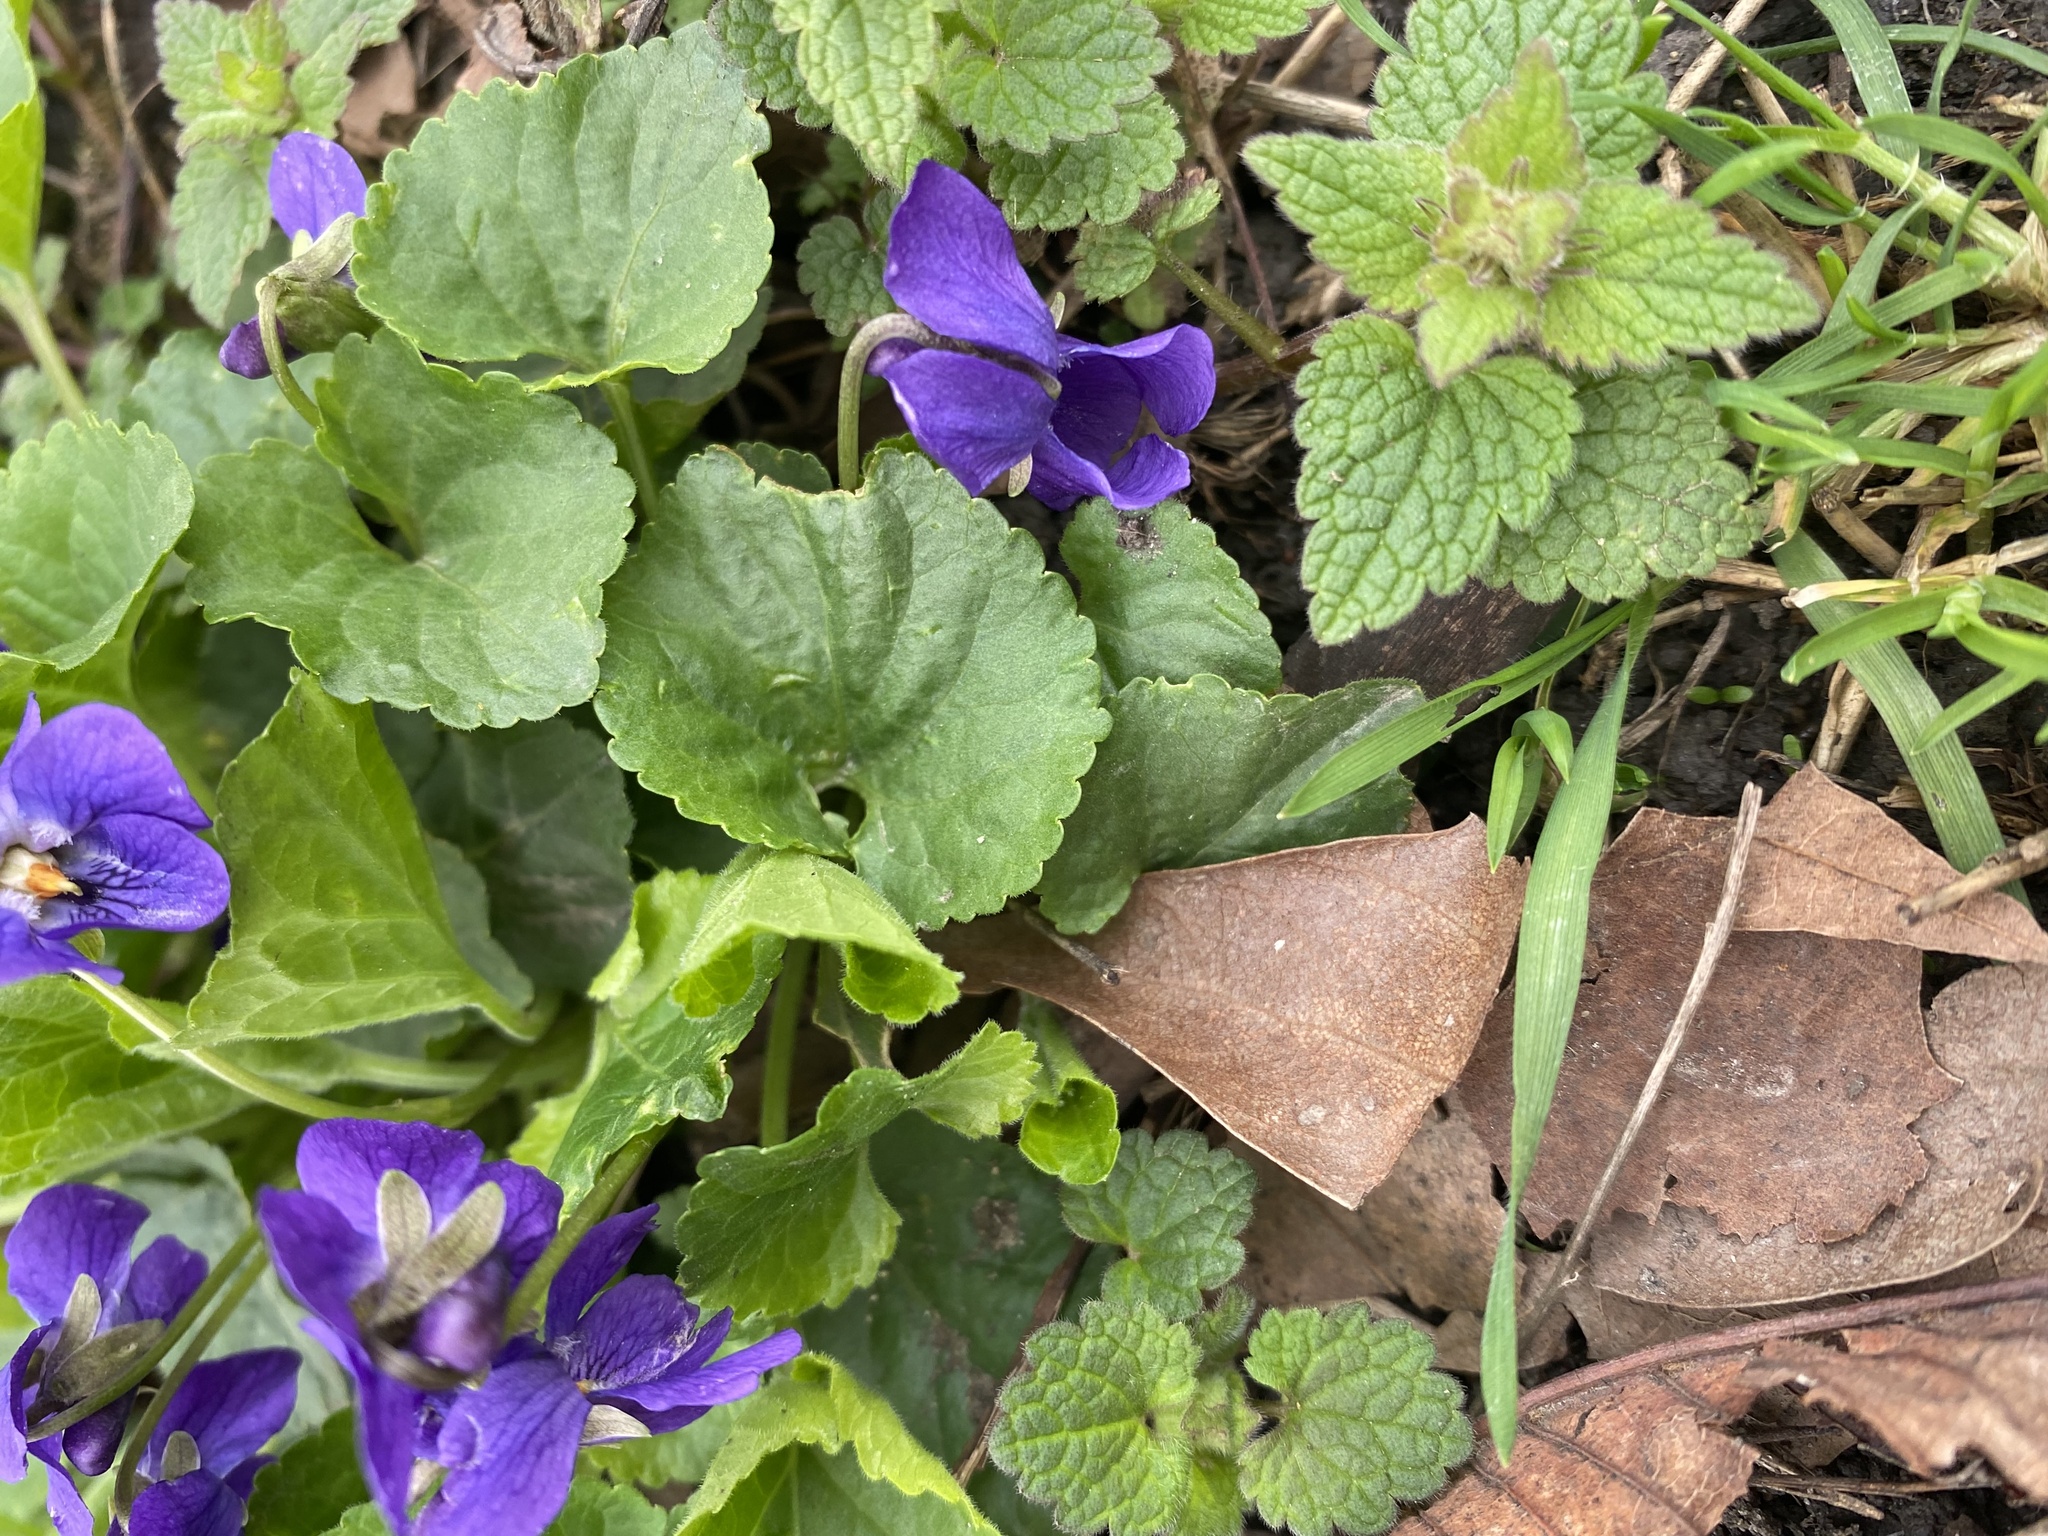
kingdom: Plantae
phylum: Tracheophyta
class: Magnoliopsida
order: Malpighiales
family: Violaceae
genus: Viola
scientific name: Viola odorata
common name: Sweet violet
